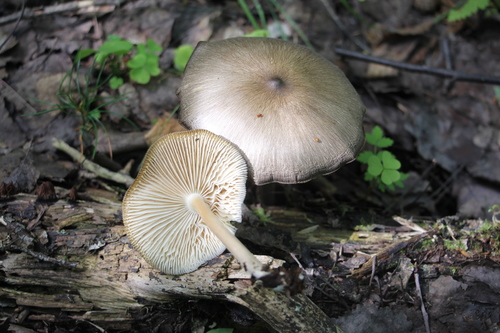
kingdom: Fungi
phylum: Basidiomycota
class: Agaricomycetes
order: Agaricales
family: Tricholomataceae
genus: Megacollybia
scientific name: Megacollybia clitocyboidea
